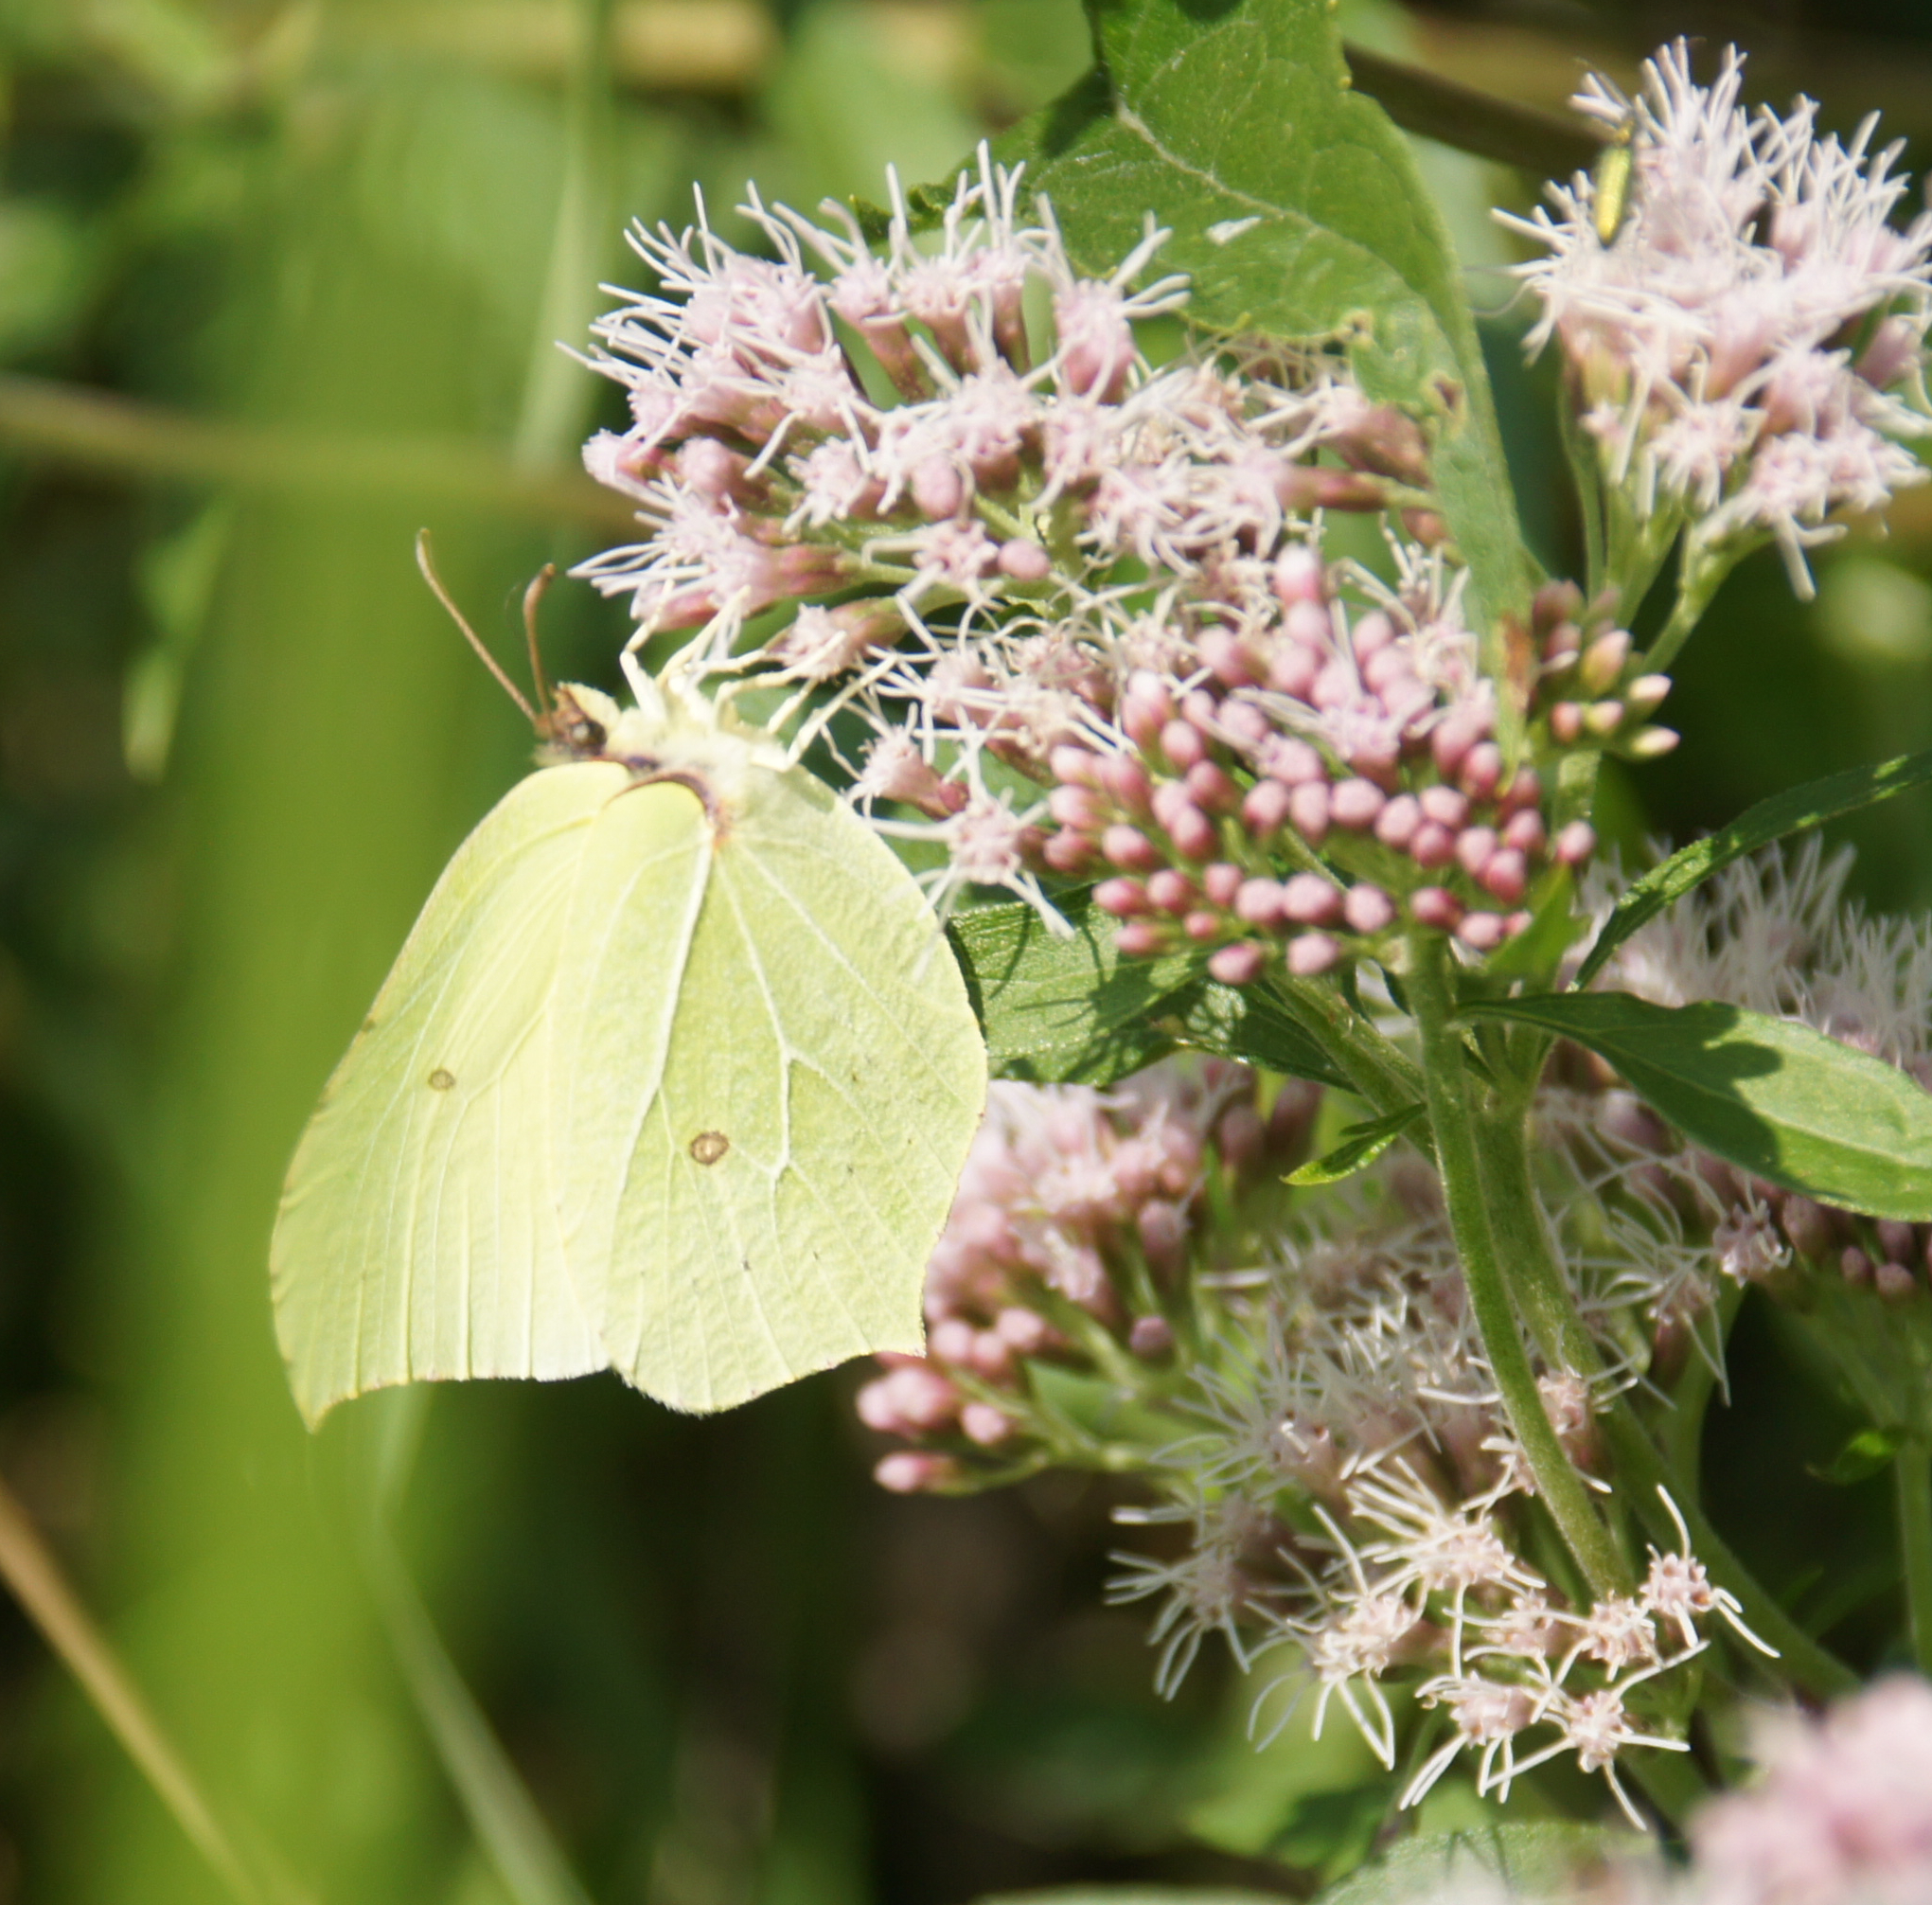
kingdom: Animalia
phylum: Arthropoda
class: Insecta
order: Lepidoptera
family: Pieridae
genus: Gonepteryx
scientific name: Gonepteryx rhamni
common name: Brimstone
